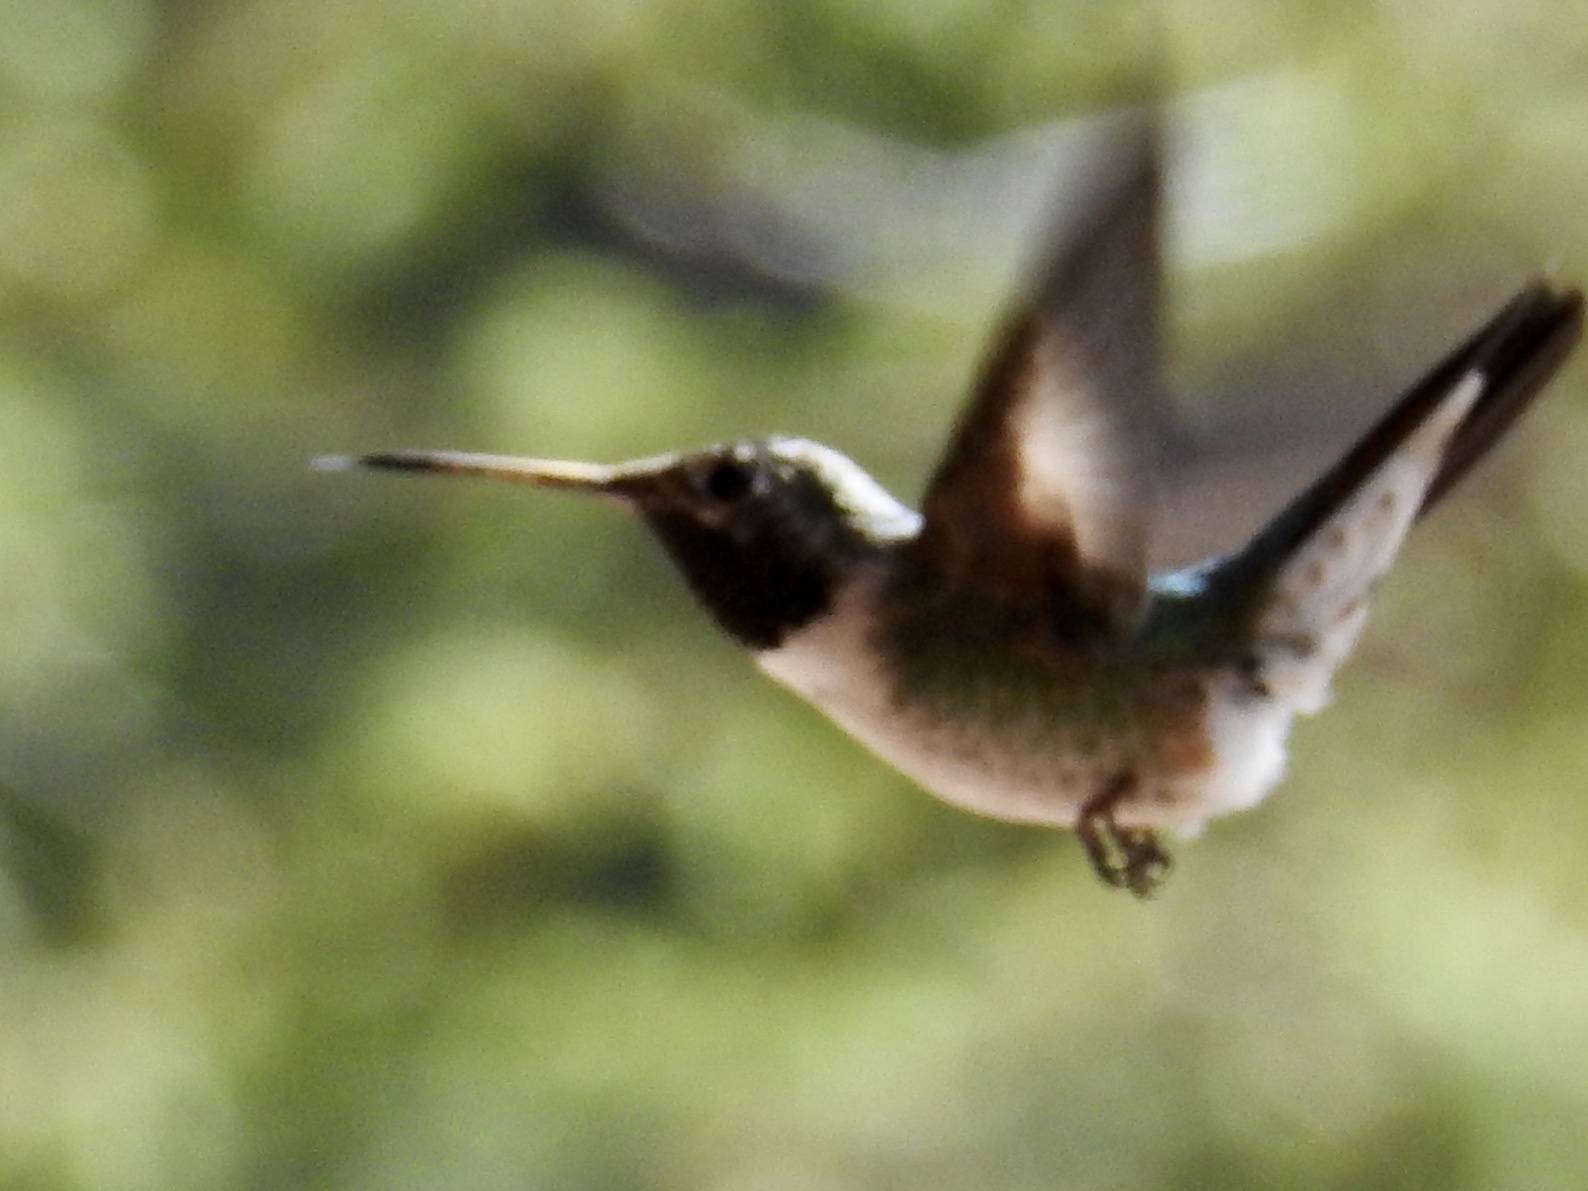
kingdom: Animalia
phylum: Chordata
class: Aves
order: Apodiformes
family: Trochilidae
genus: Selasphorus
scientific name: Selasphorus platycercus
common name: Broad-tailed hummingbird
